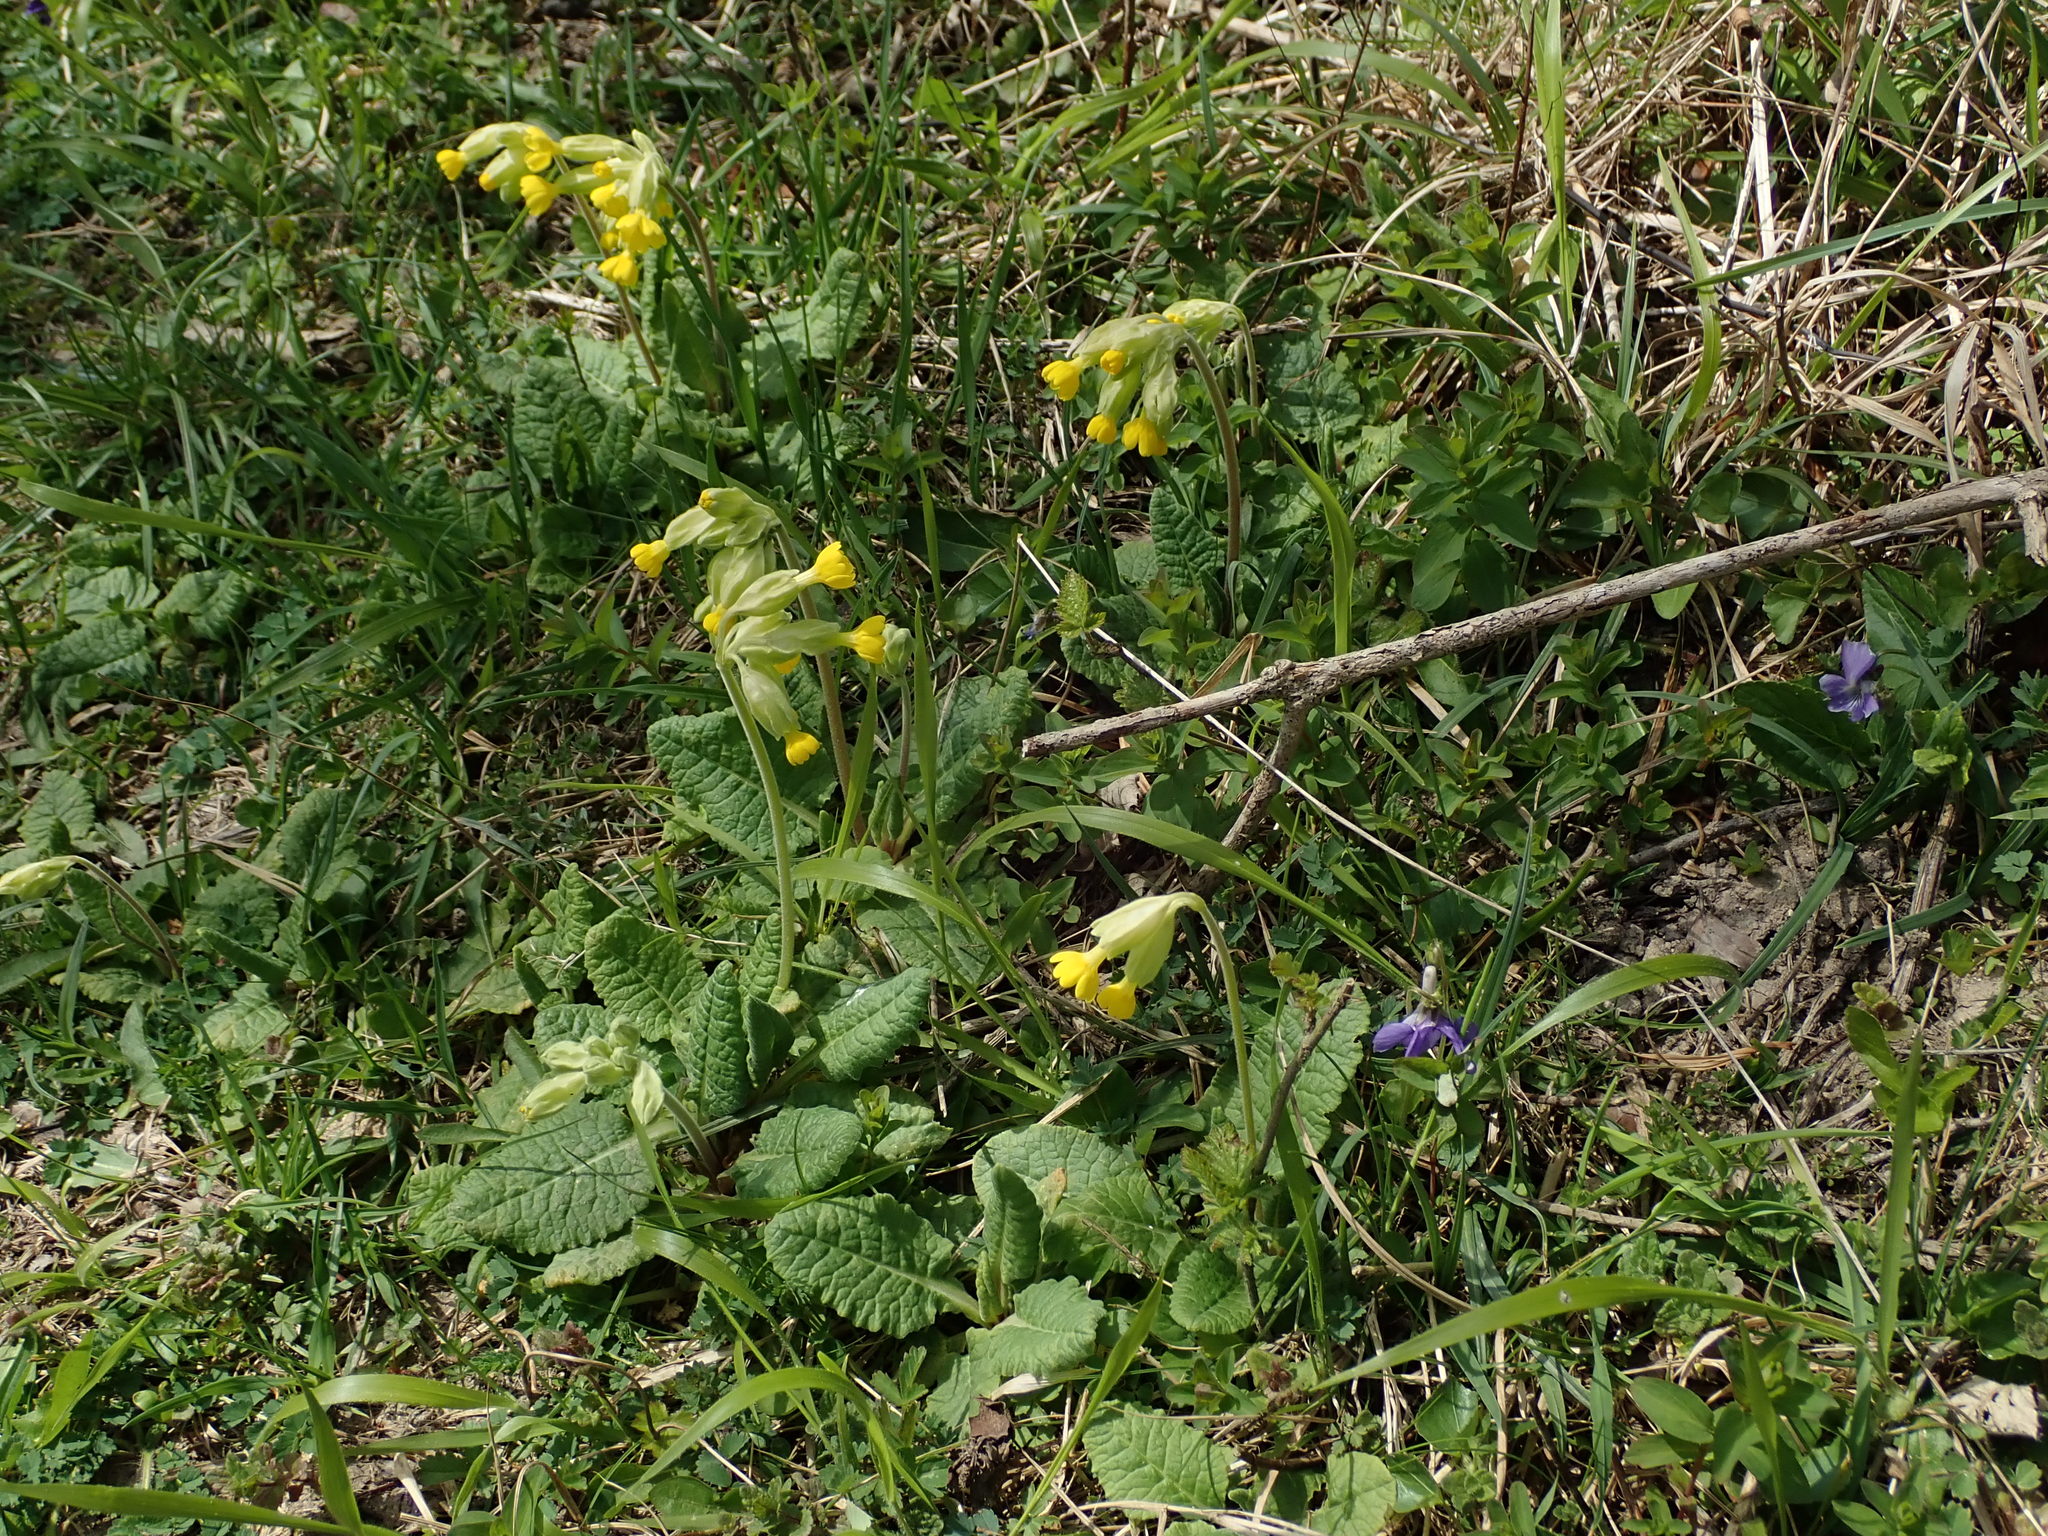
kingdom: Plantae
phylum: Tracheophyta
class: Magnoliopsida
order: Ericales
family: Primulaceae
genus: Primula
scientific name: Primula veris
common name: Cowslip
